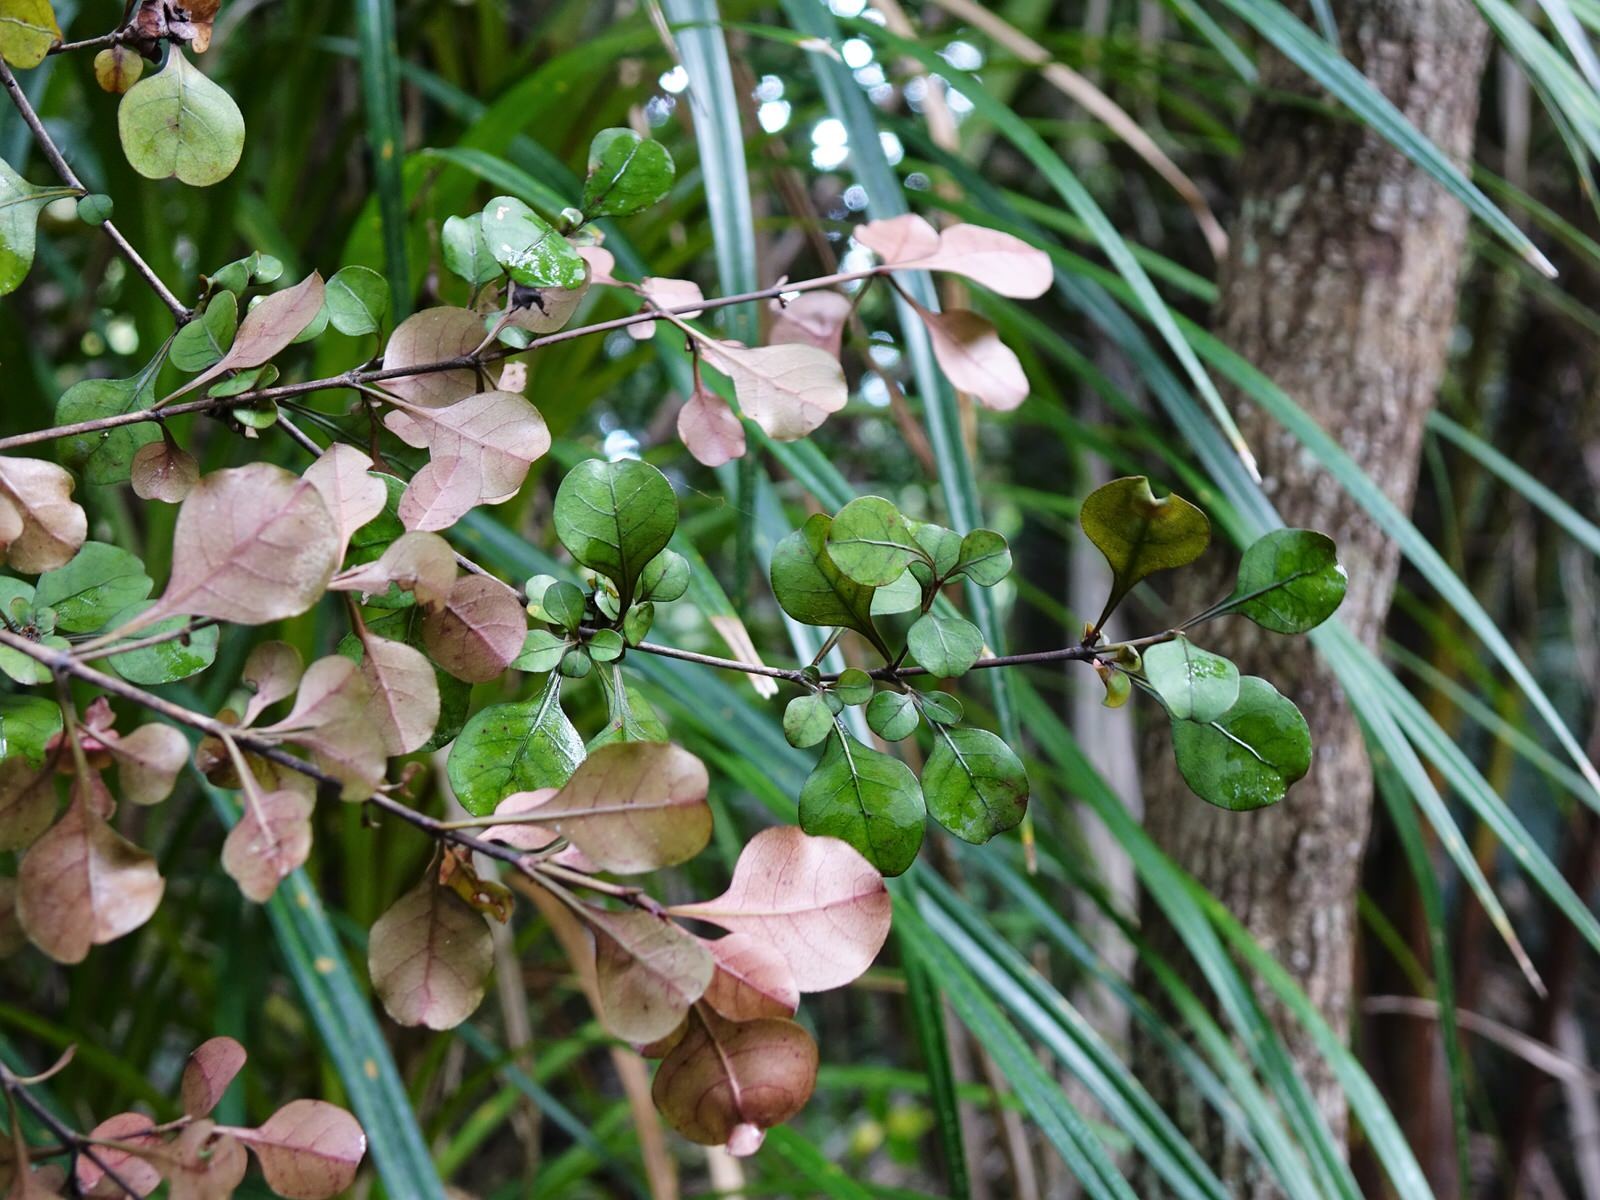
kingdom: Plantae
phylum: Tracheophyta
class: Magnoliopsida
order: Gentianales
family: Rubiaceae
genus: Coprosma
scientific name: Coprosma arborea
